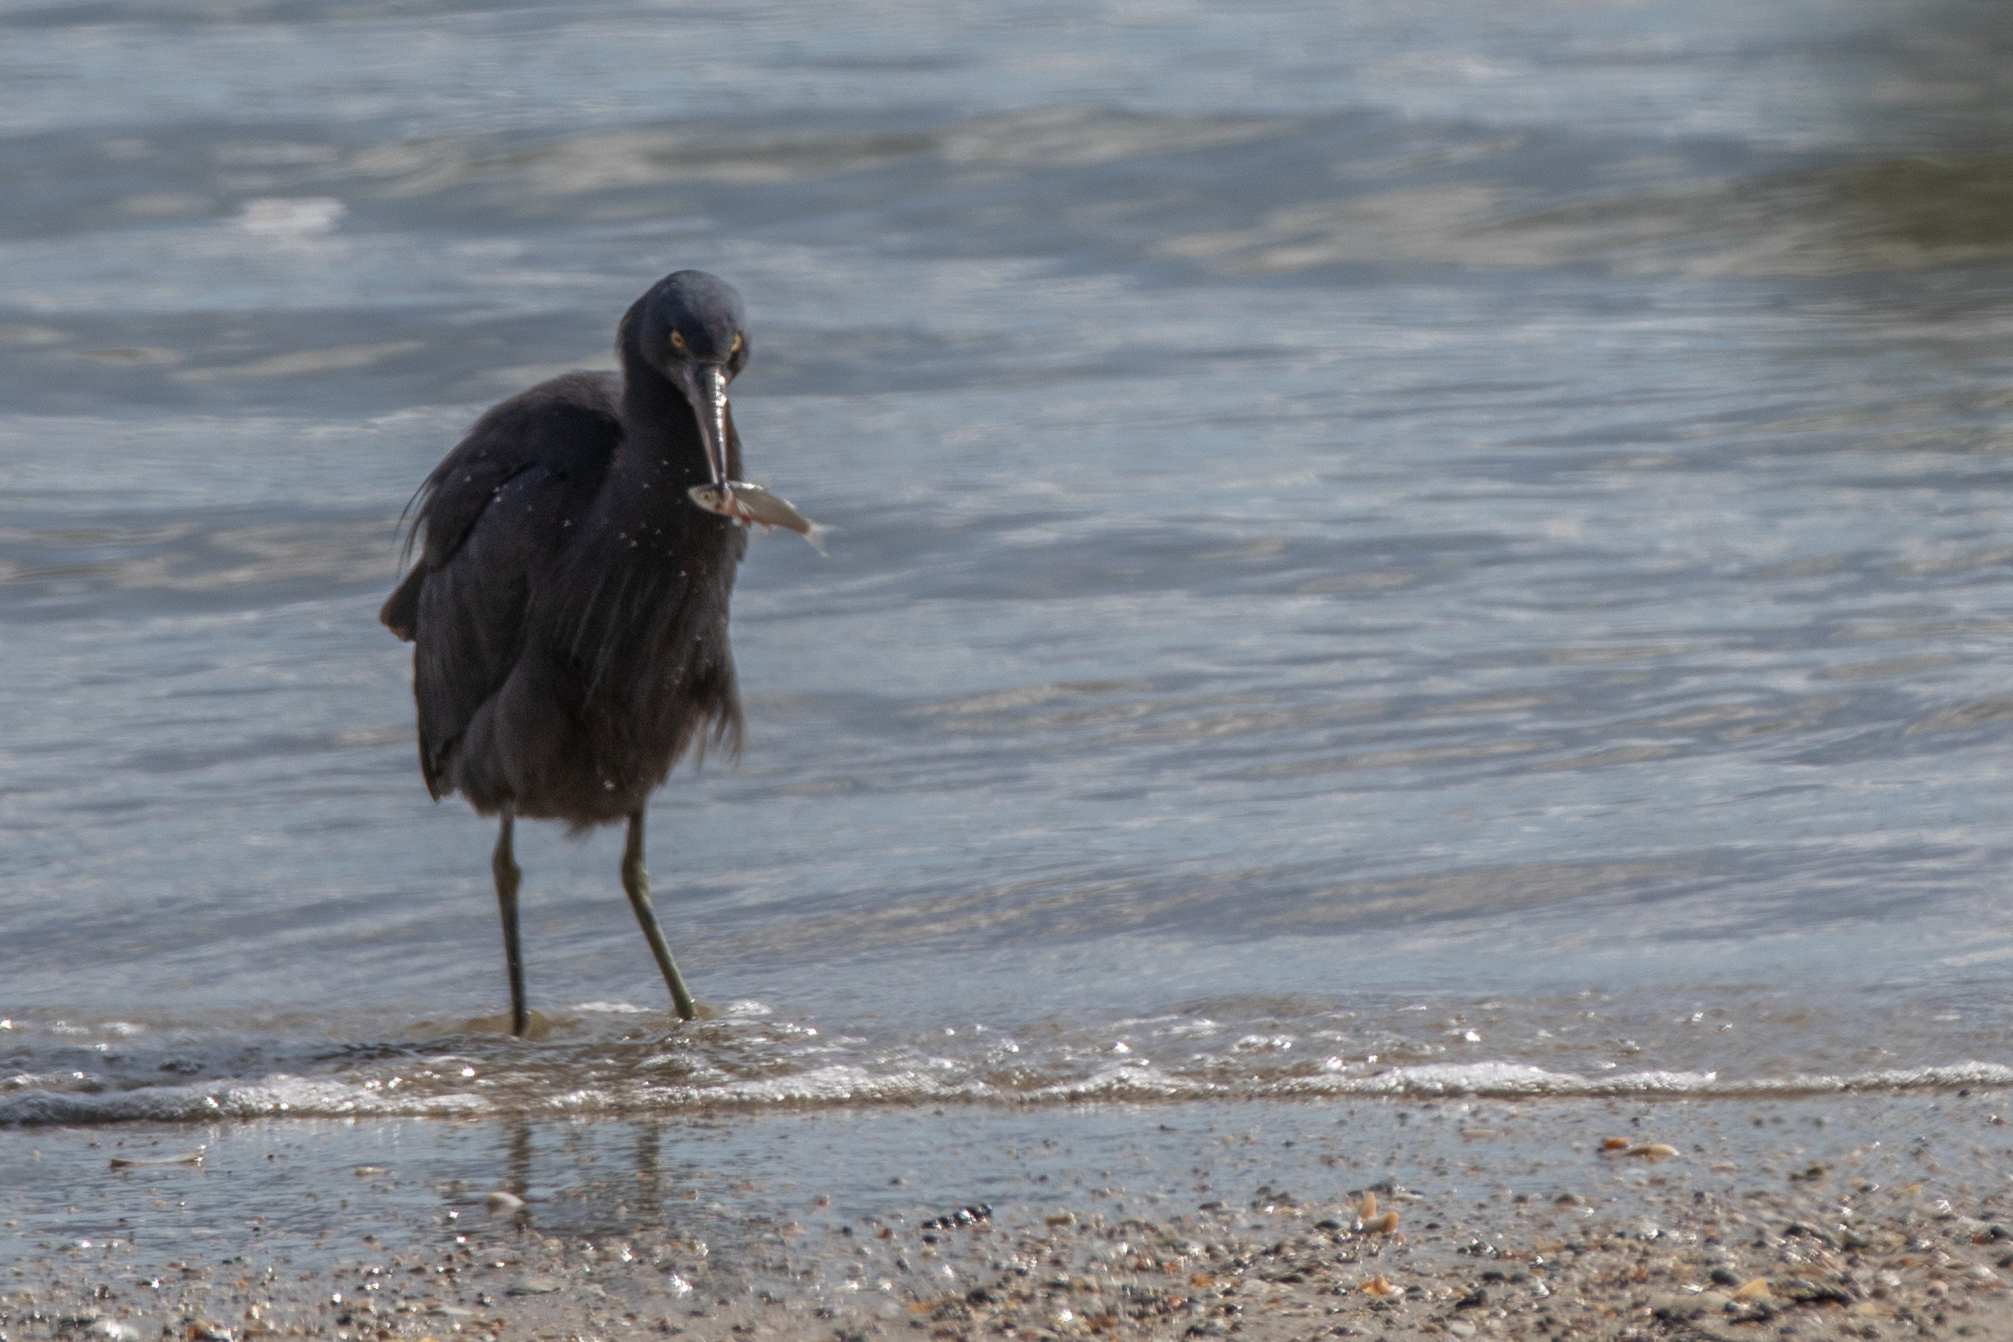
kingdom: Animalia
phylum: Chordata
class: Aves
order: Pelecaniformes
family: Ardeidae
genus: Egretta
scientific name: Egretta sacra
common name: Pacific reef heron
